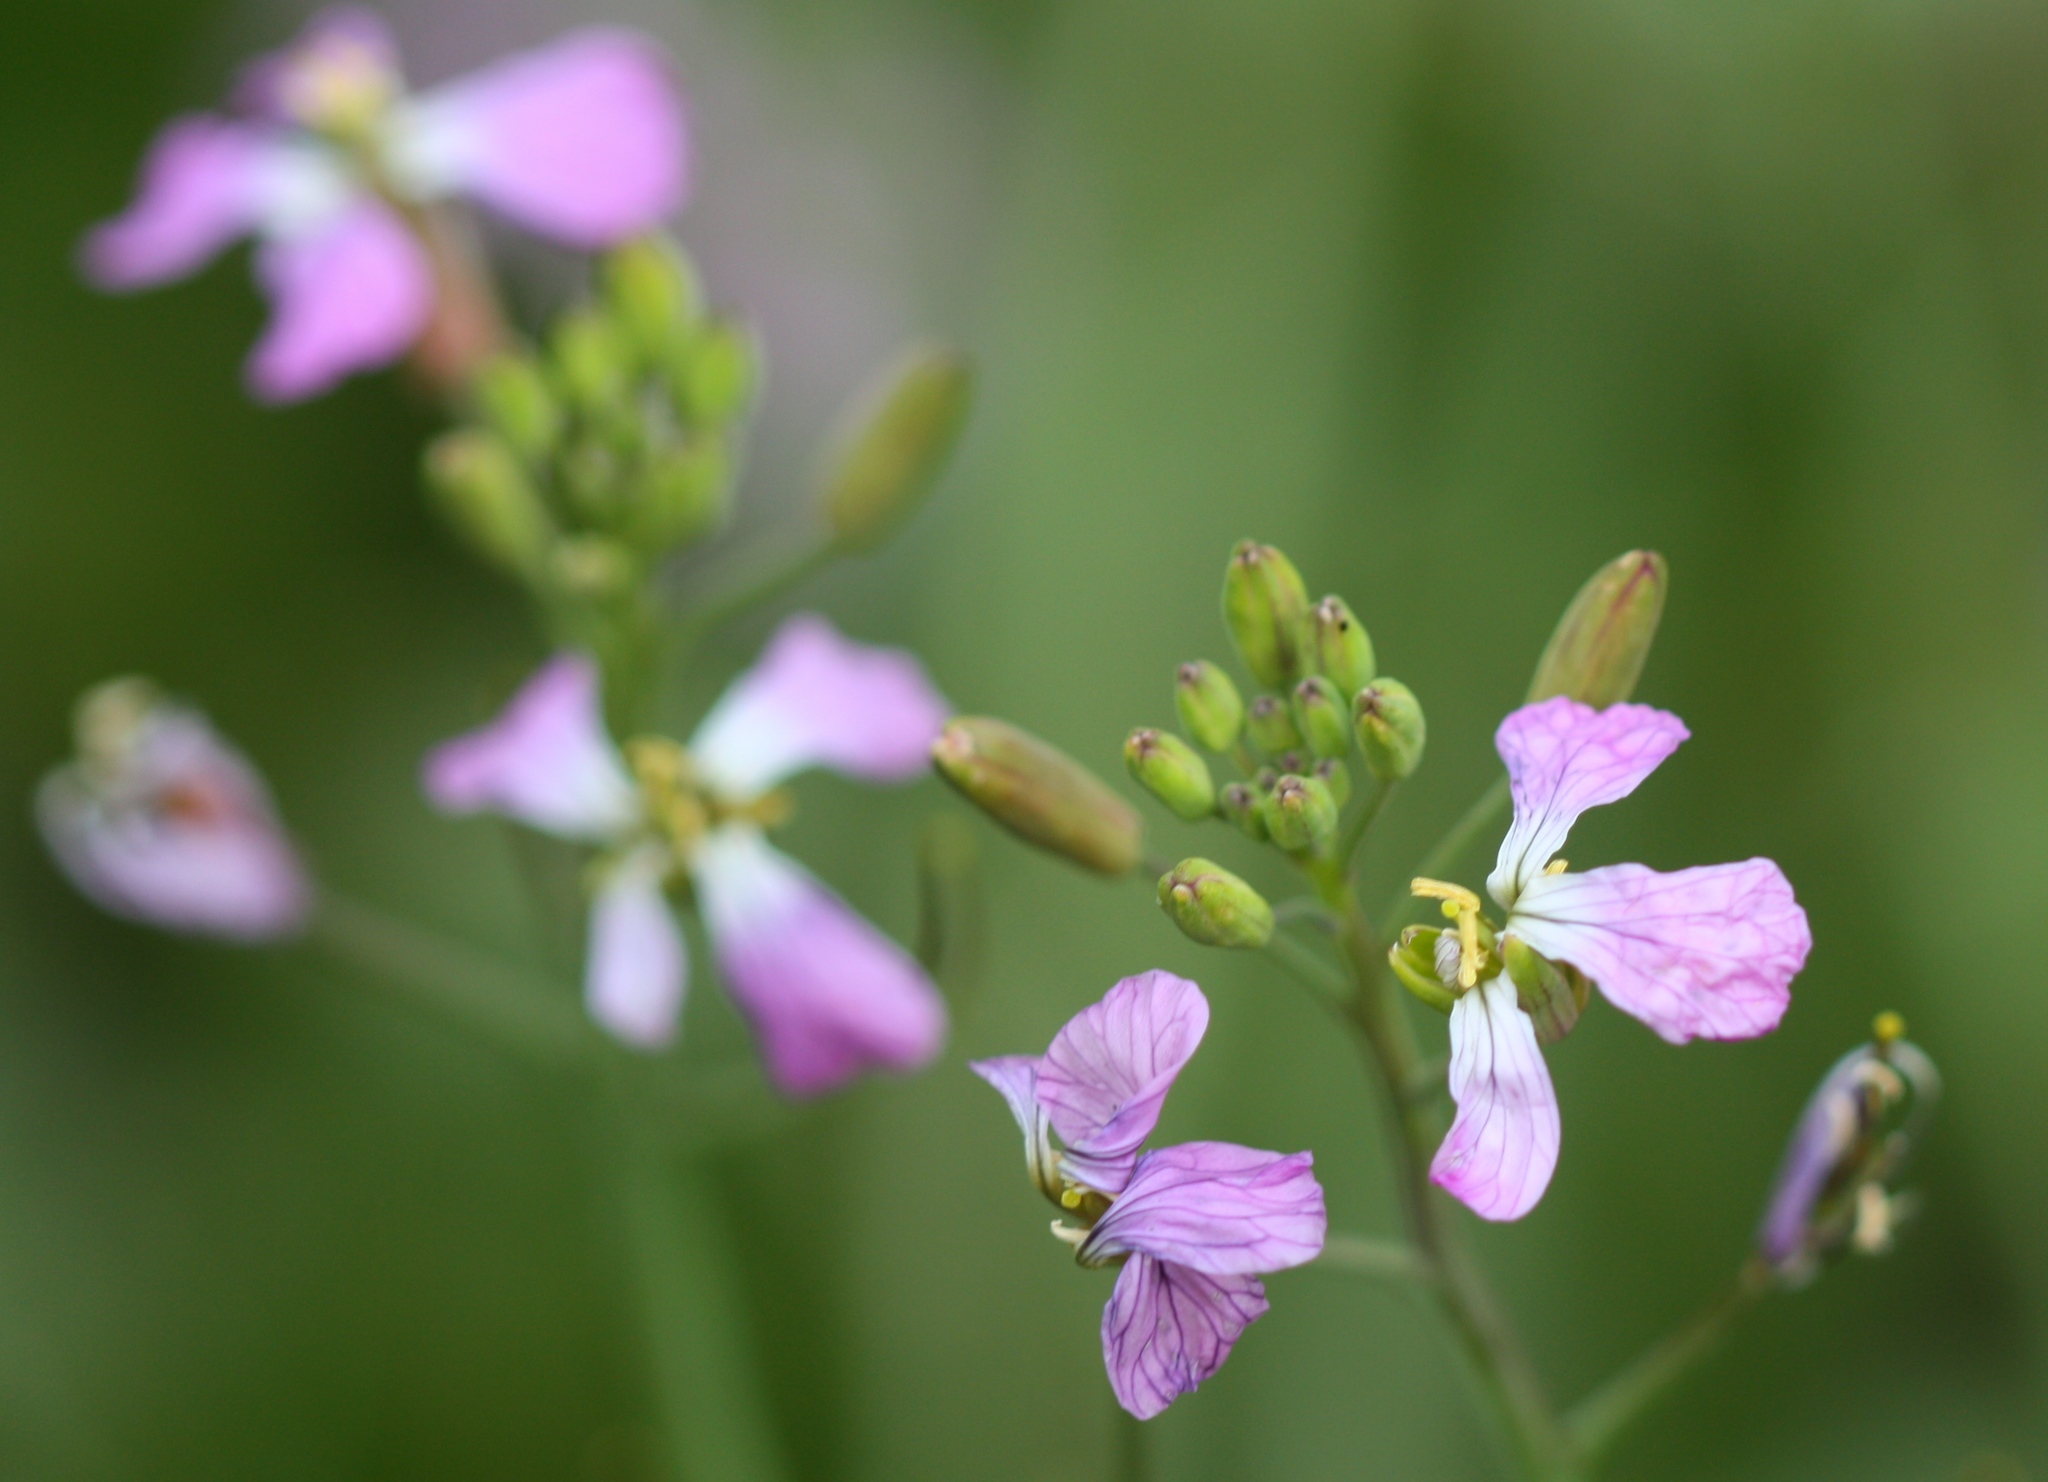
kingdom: Plantae
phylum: Tracheophyta
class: Magnoliopsida
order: Brassicales
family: Brassicaceae
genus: Raphanus
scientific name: Raphanus sativus
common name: Cultivated radish
